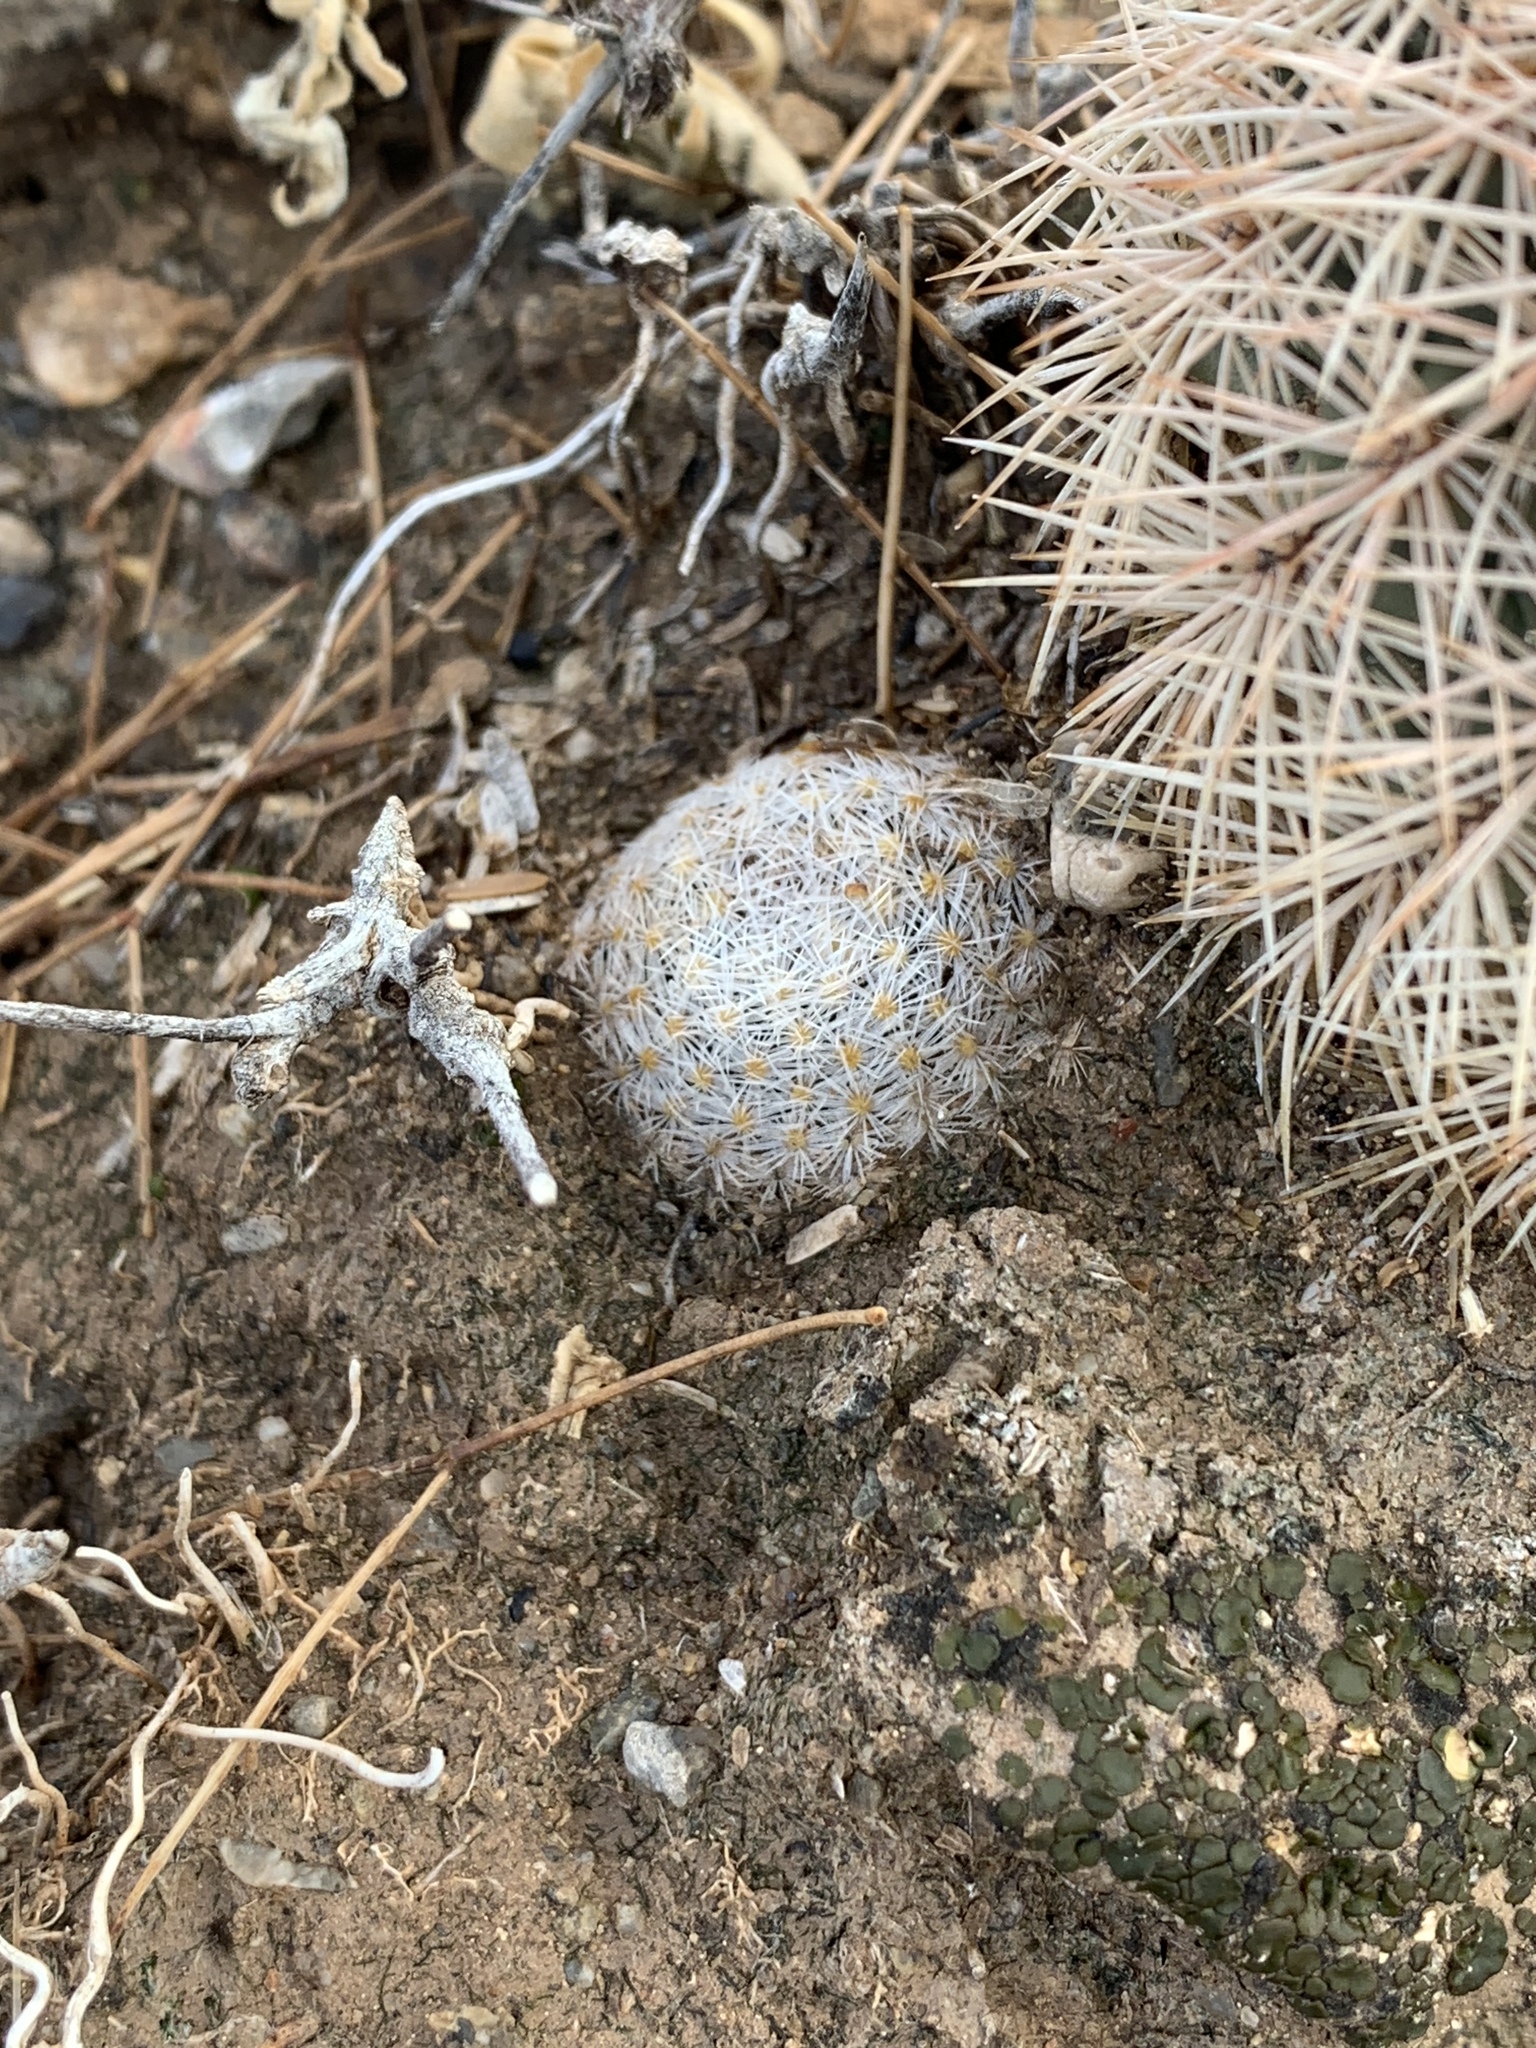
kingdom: Plantae
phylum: Tracheophyta
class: Magnoliopsida
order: Caryophyllales
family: Cactaceae
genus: Mammillaria
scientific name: Mammillaria lasiacantha
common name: Lace-spine nipple cactus
